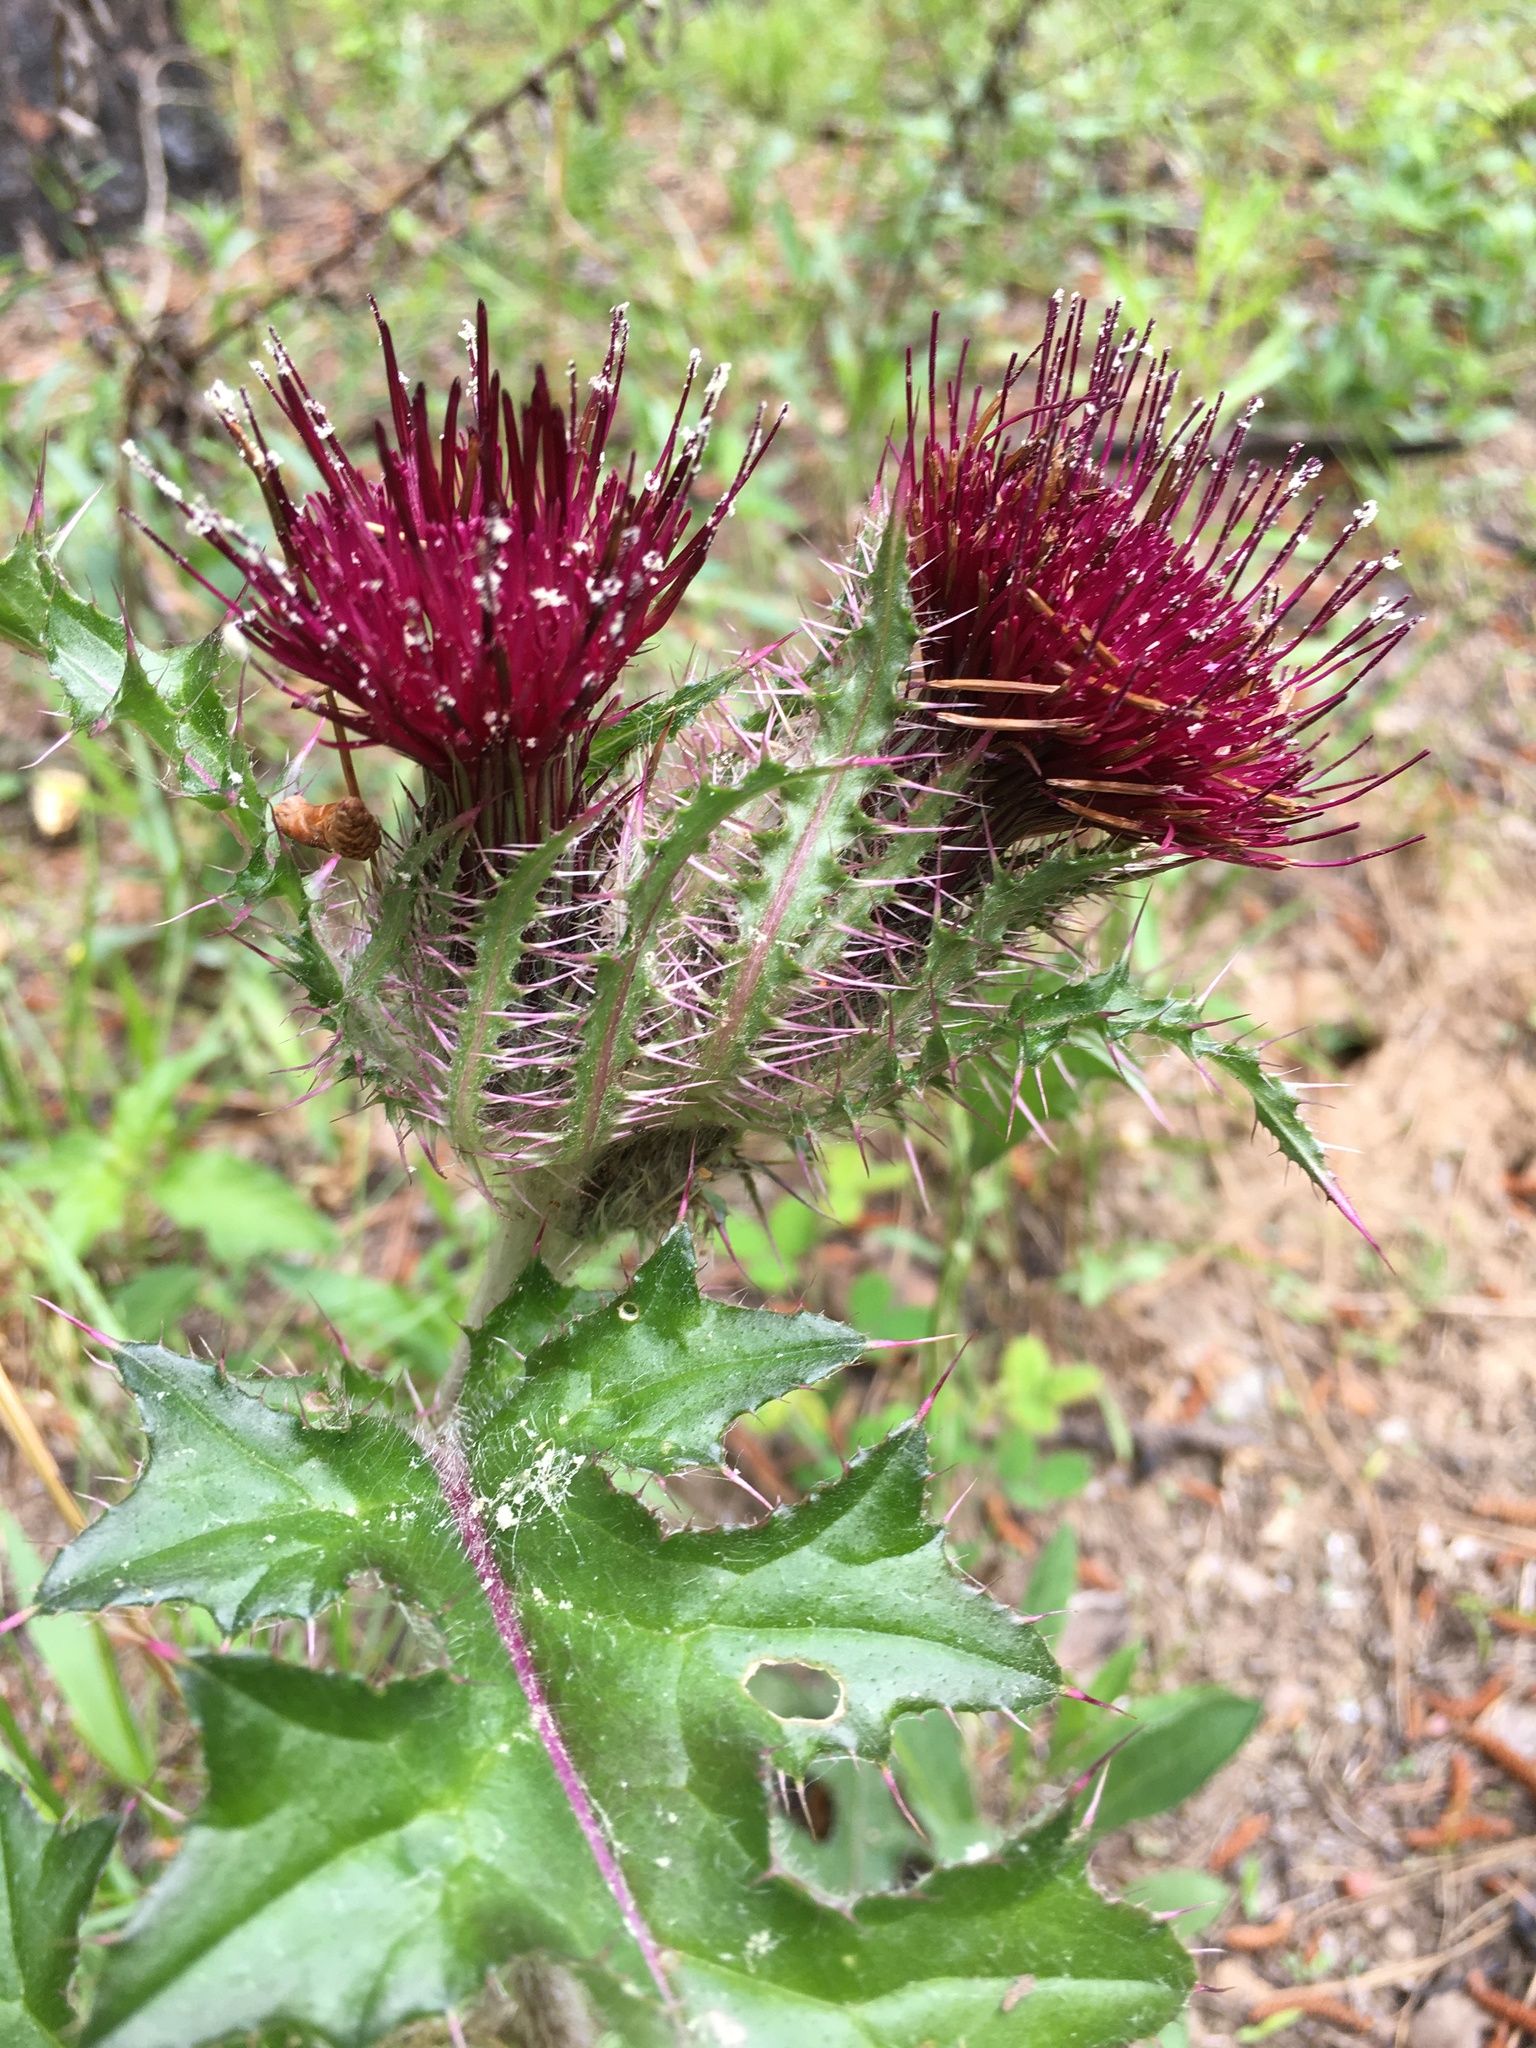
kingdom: Plantae
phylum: Tracheophyta
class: Magnoliopsida
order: Asterales
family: Asteraceae
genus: Cirsium
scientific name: Cirsium horridulum
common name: Bristly thistle
